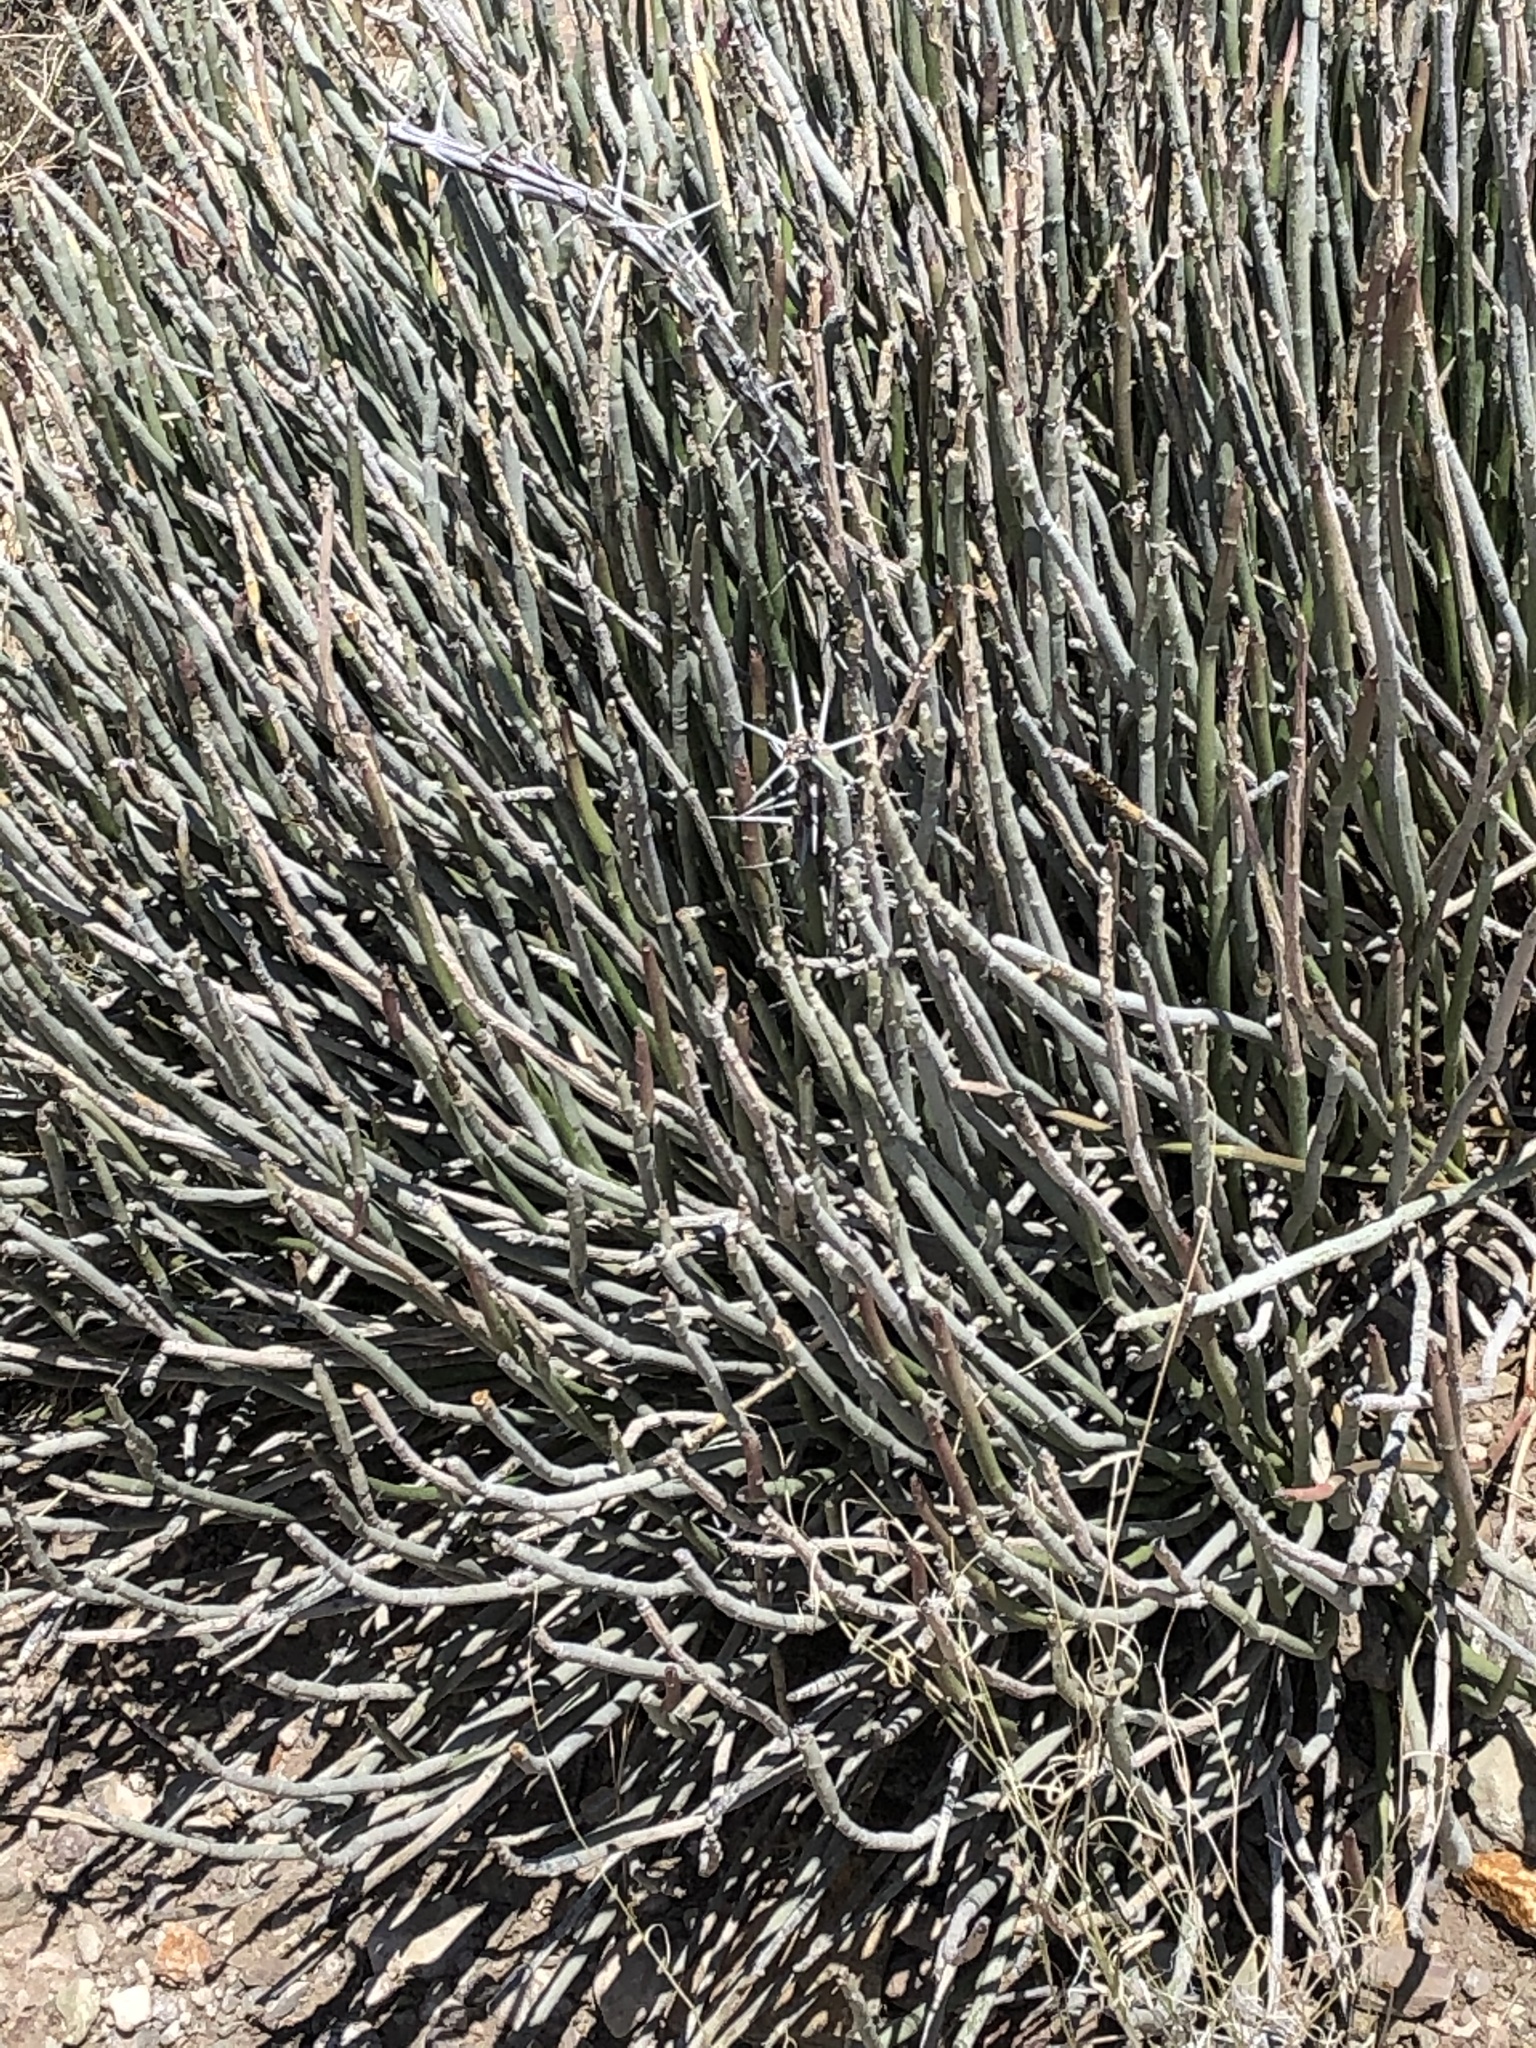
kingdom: Plantae
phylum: Tracheophyta
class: Magnoliopsida
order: Malpighiales
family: Euphorbiaceae
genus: Euphorbia
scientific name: Euphorbia antisyphilitica
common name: Candelilla
